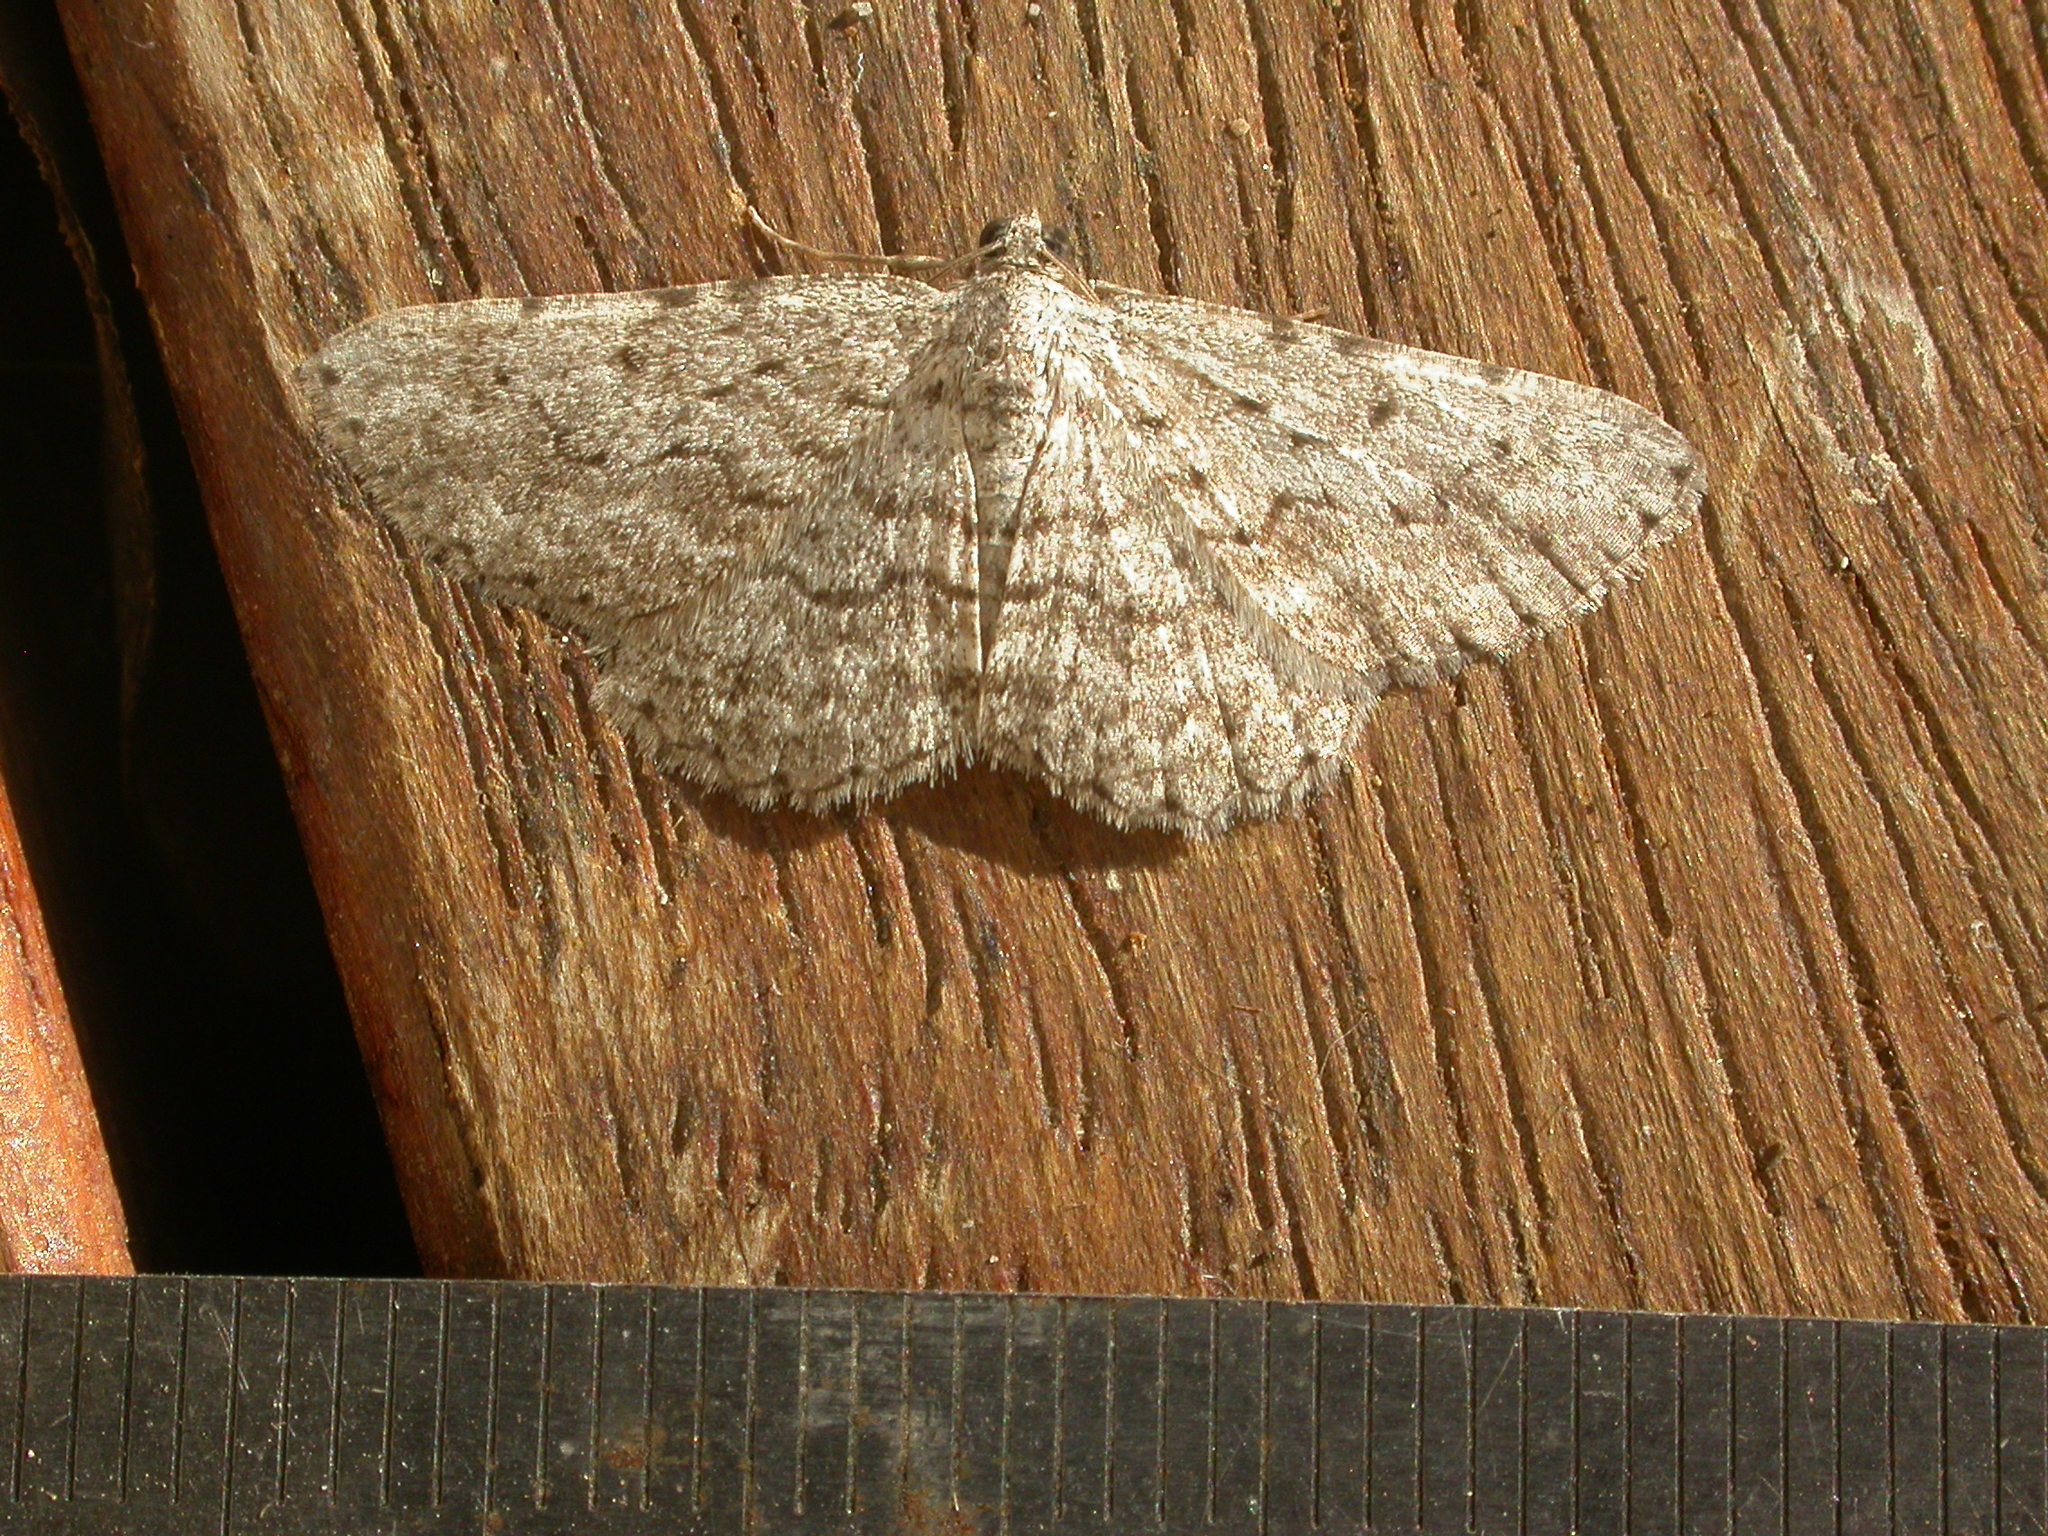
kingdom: Animalia
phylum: Arthropoda
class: Insecta
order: Lepidoptera
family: Geometridae
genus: Psilosticha
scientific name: Psilosticha absorpta
